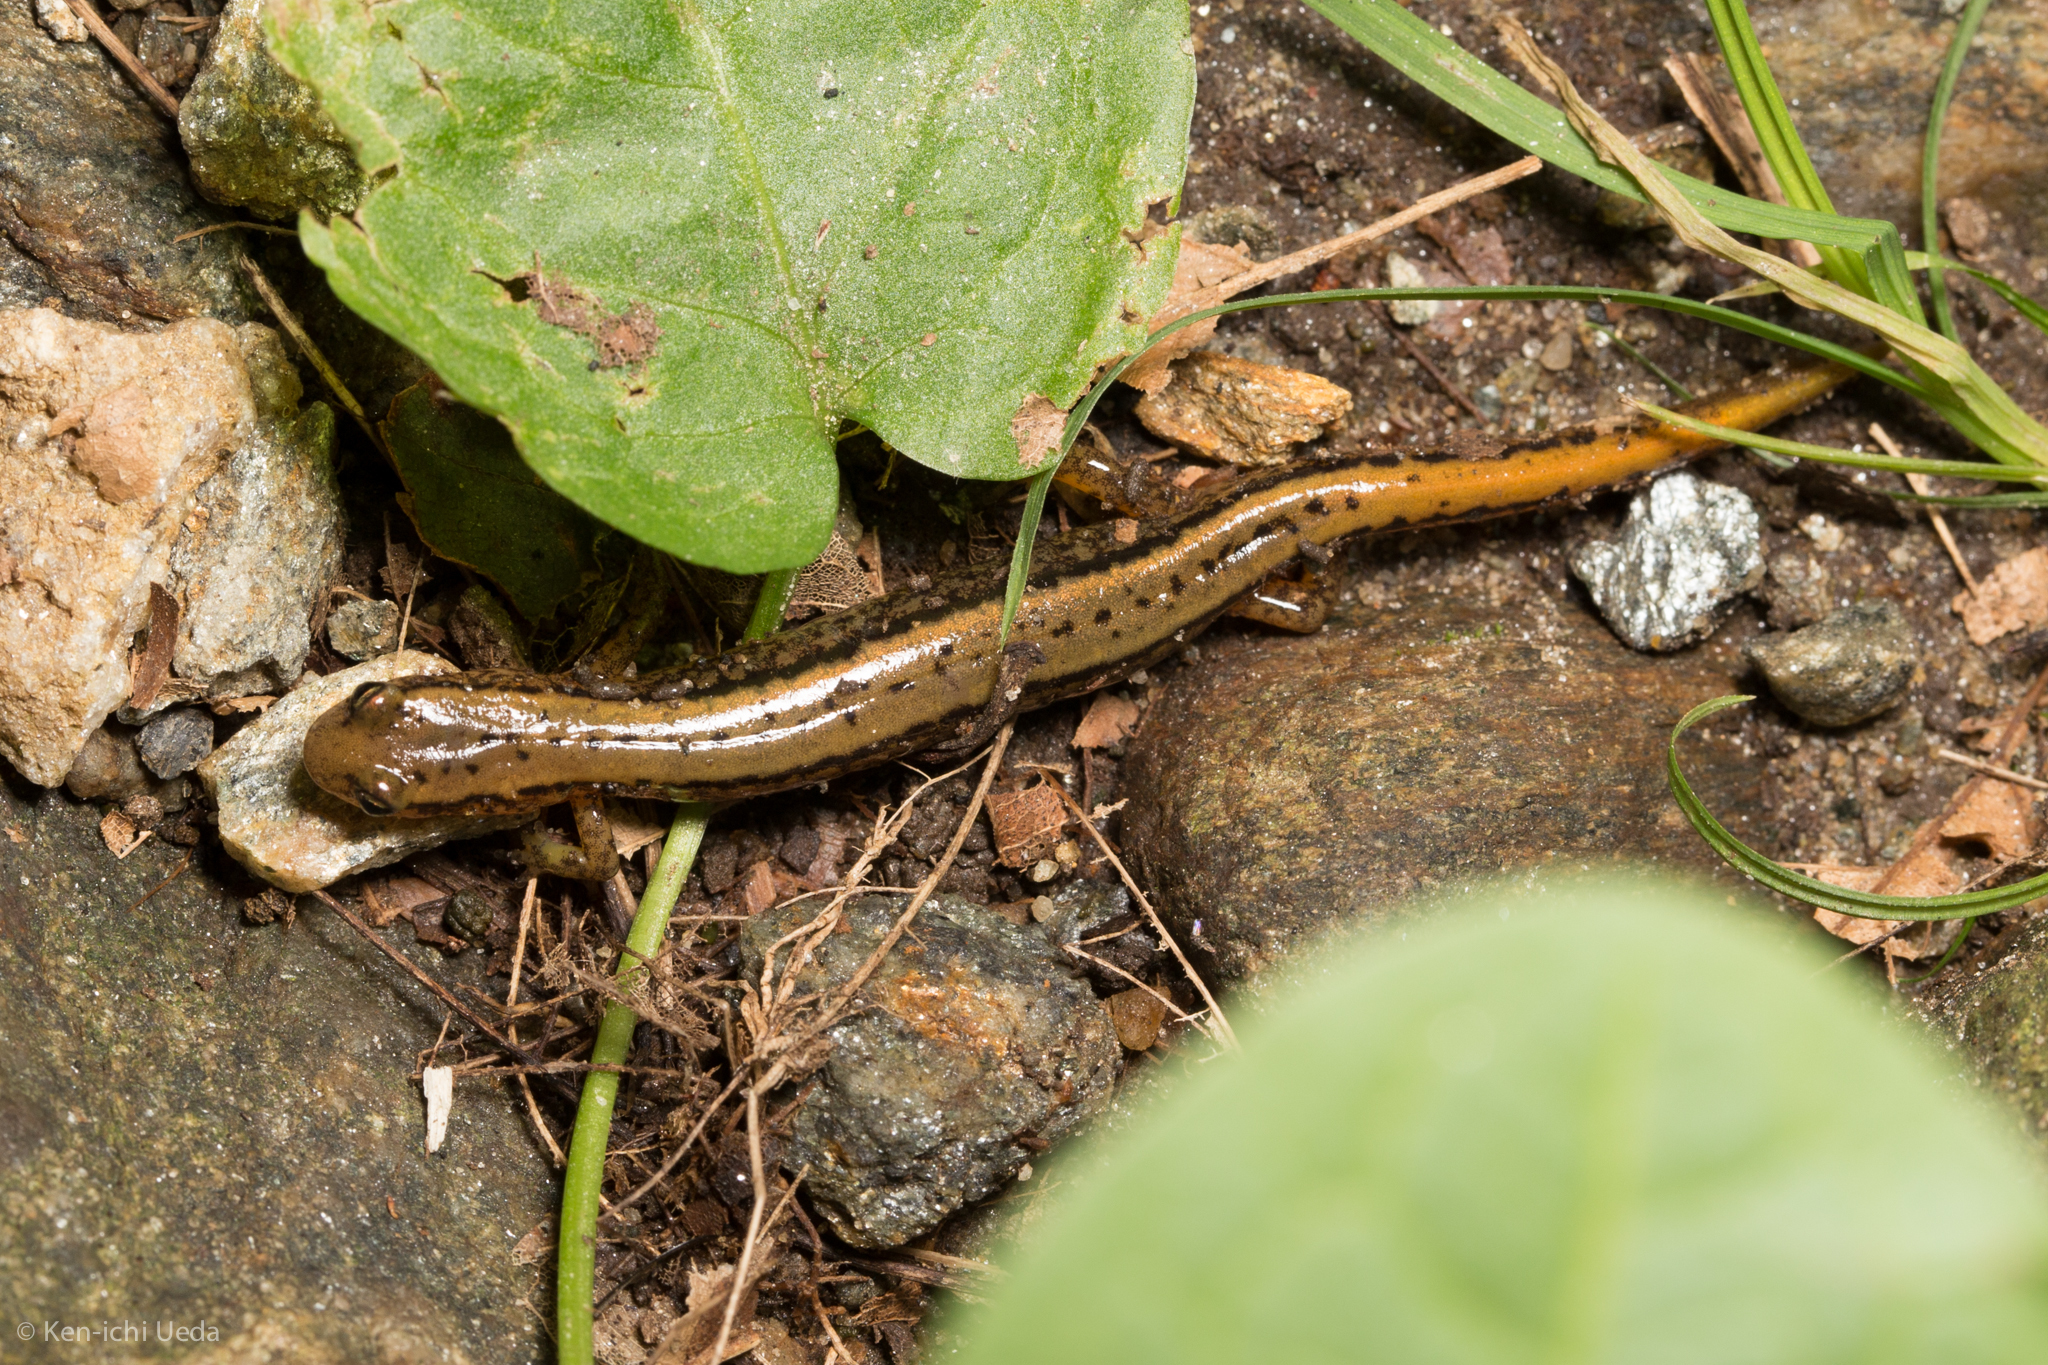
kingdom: Animalia
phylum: Chordata
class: Amphibia
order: Caudata
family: Plethodontidae
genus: Eurycea
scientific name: Eurycea bislineata
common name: Northern two-lined salamander
